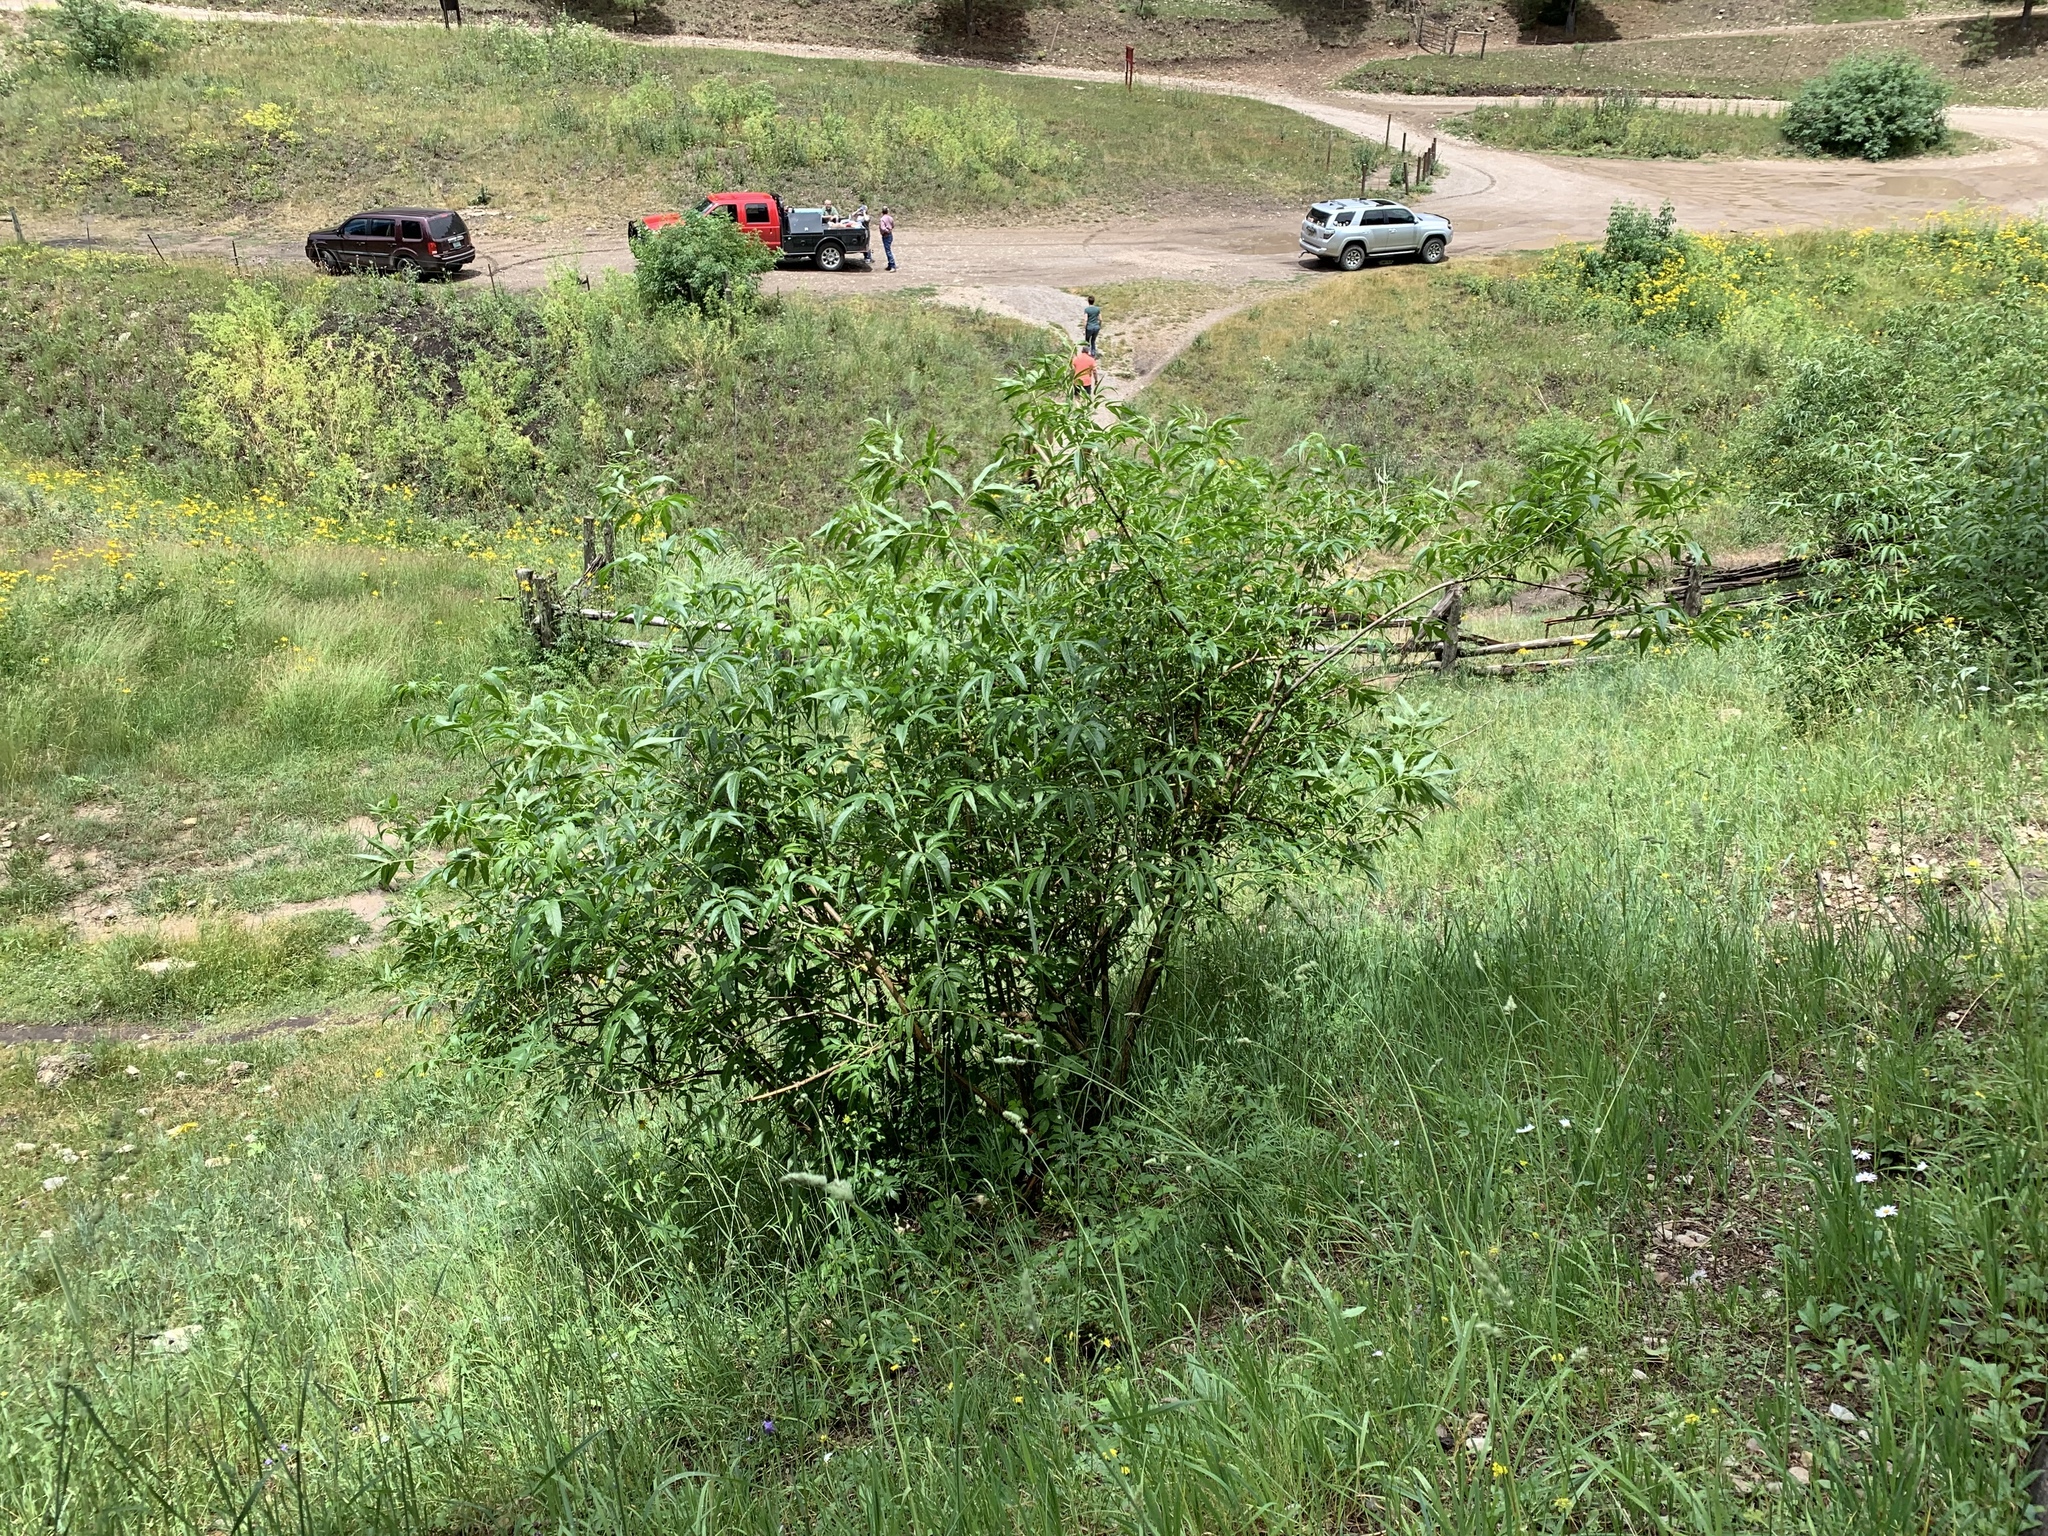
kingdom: Plantae
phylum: Tracheophyta
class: Magnoliopsida
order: Dipsacales
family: Viburnaceae
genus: Sambucus
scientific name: Sambucus cerulea
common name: Blue elder
